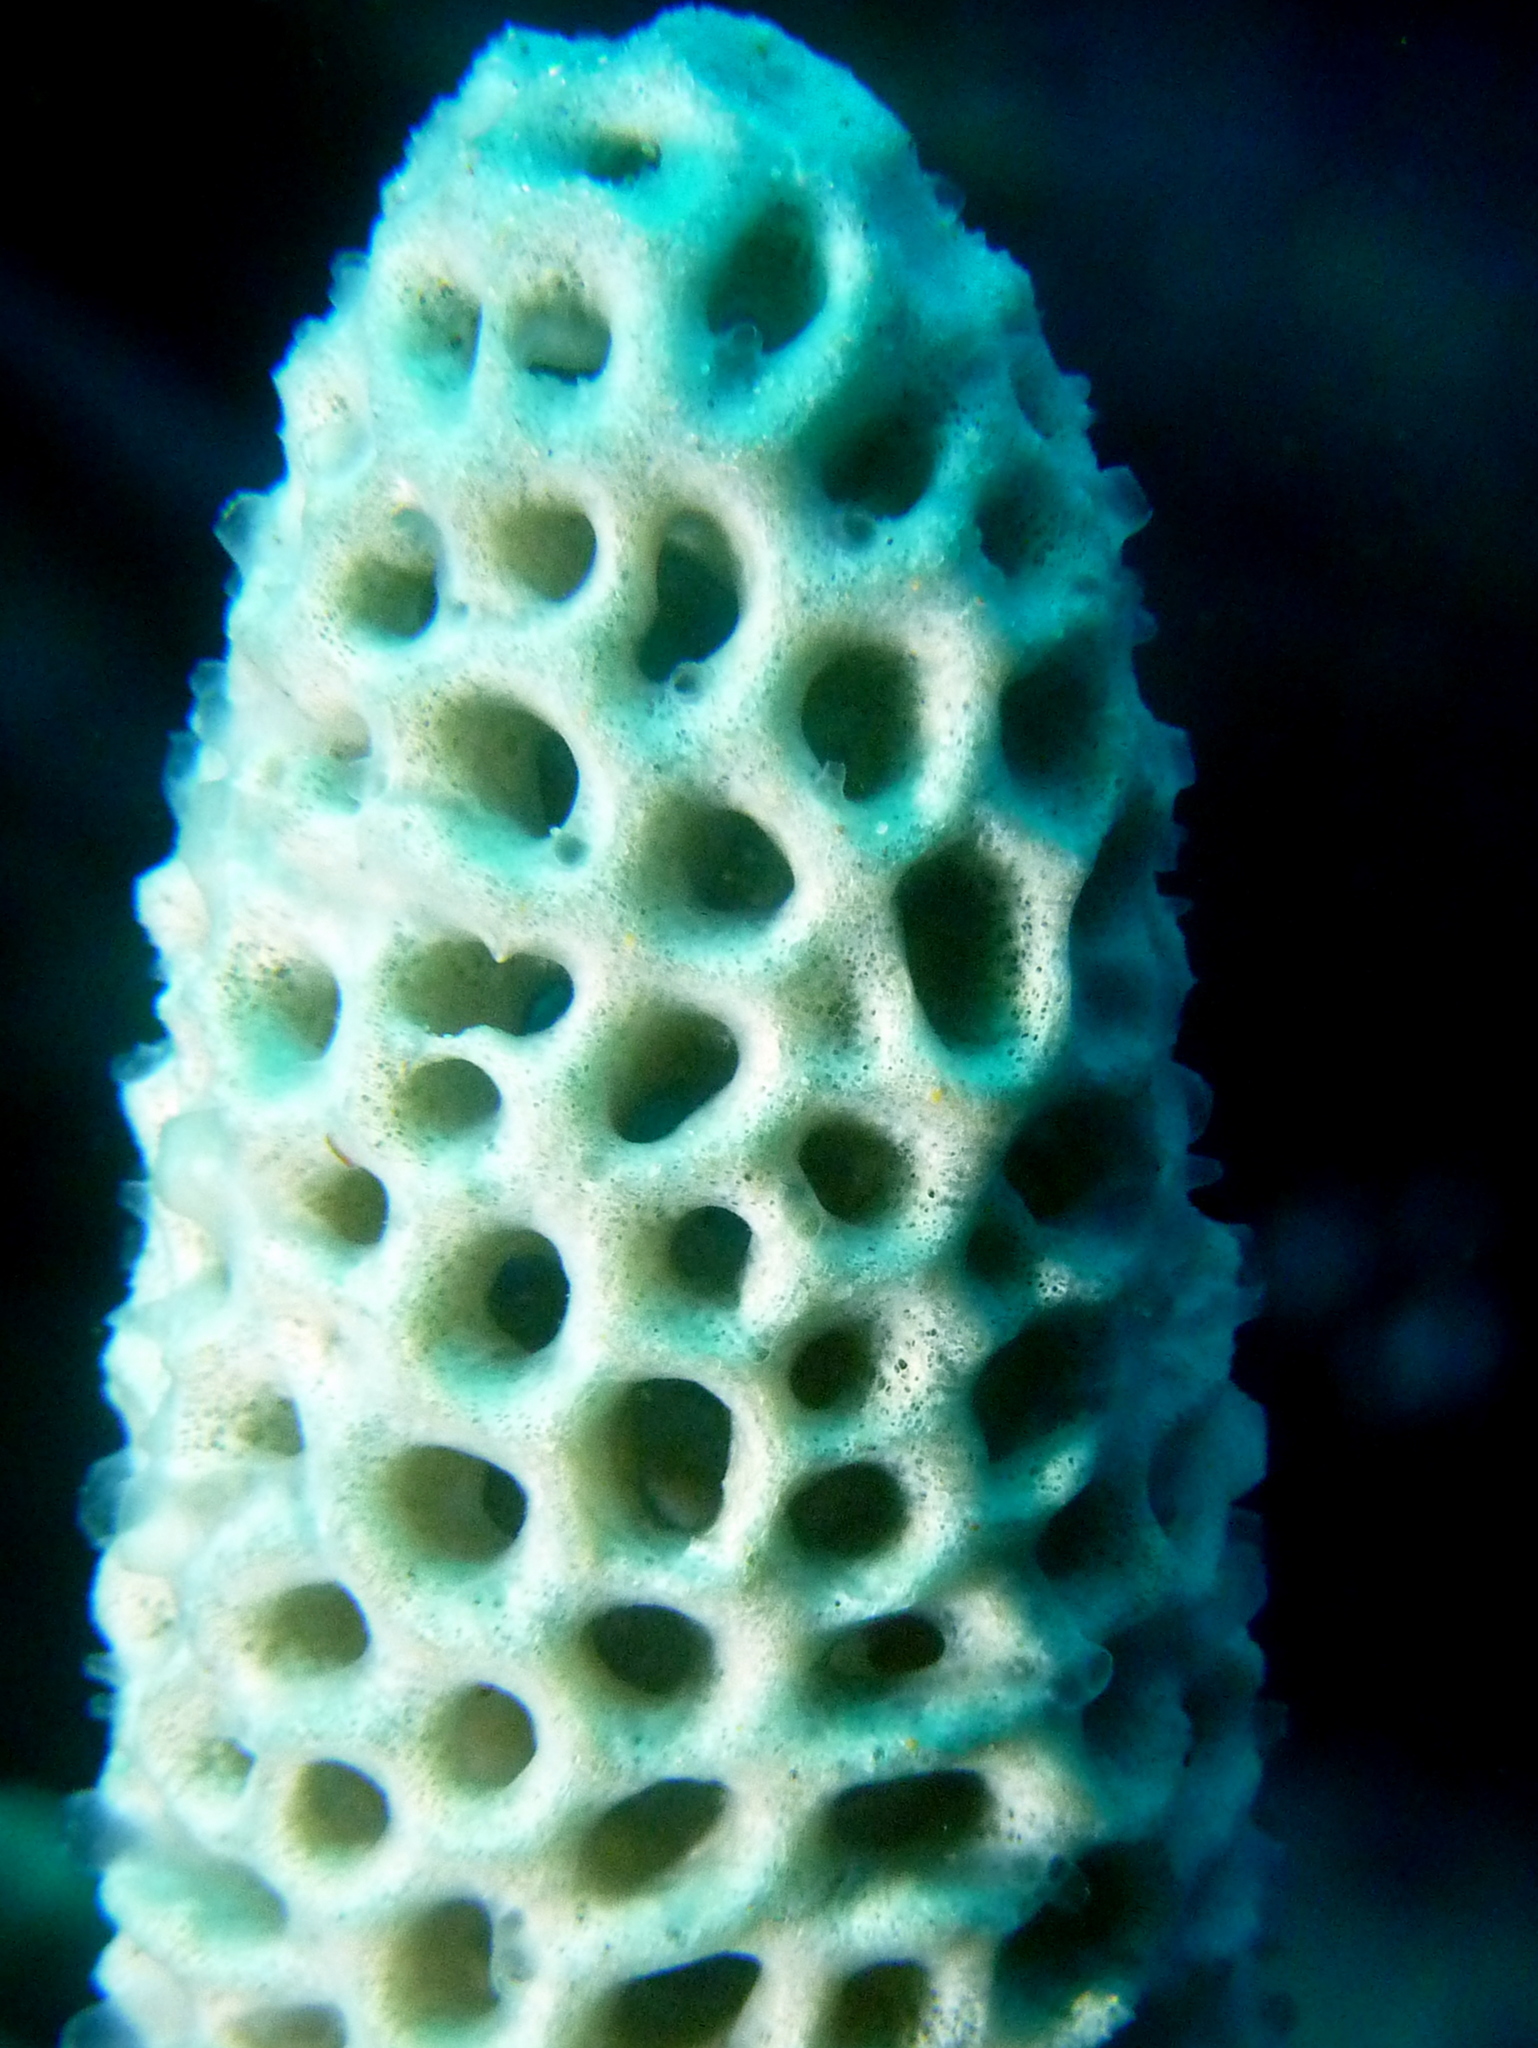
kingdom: Animalia
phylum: Porifera
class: Demospongiae
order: Poecilosclerida
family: Microcionidae
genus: Holopsamma
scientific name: Holopsamma laminaefavosa
